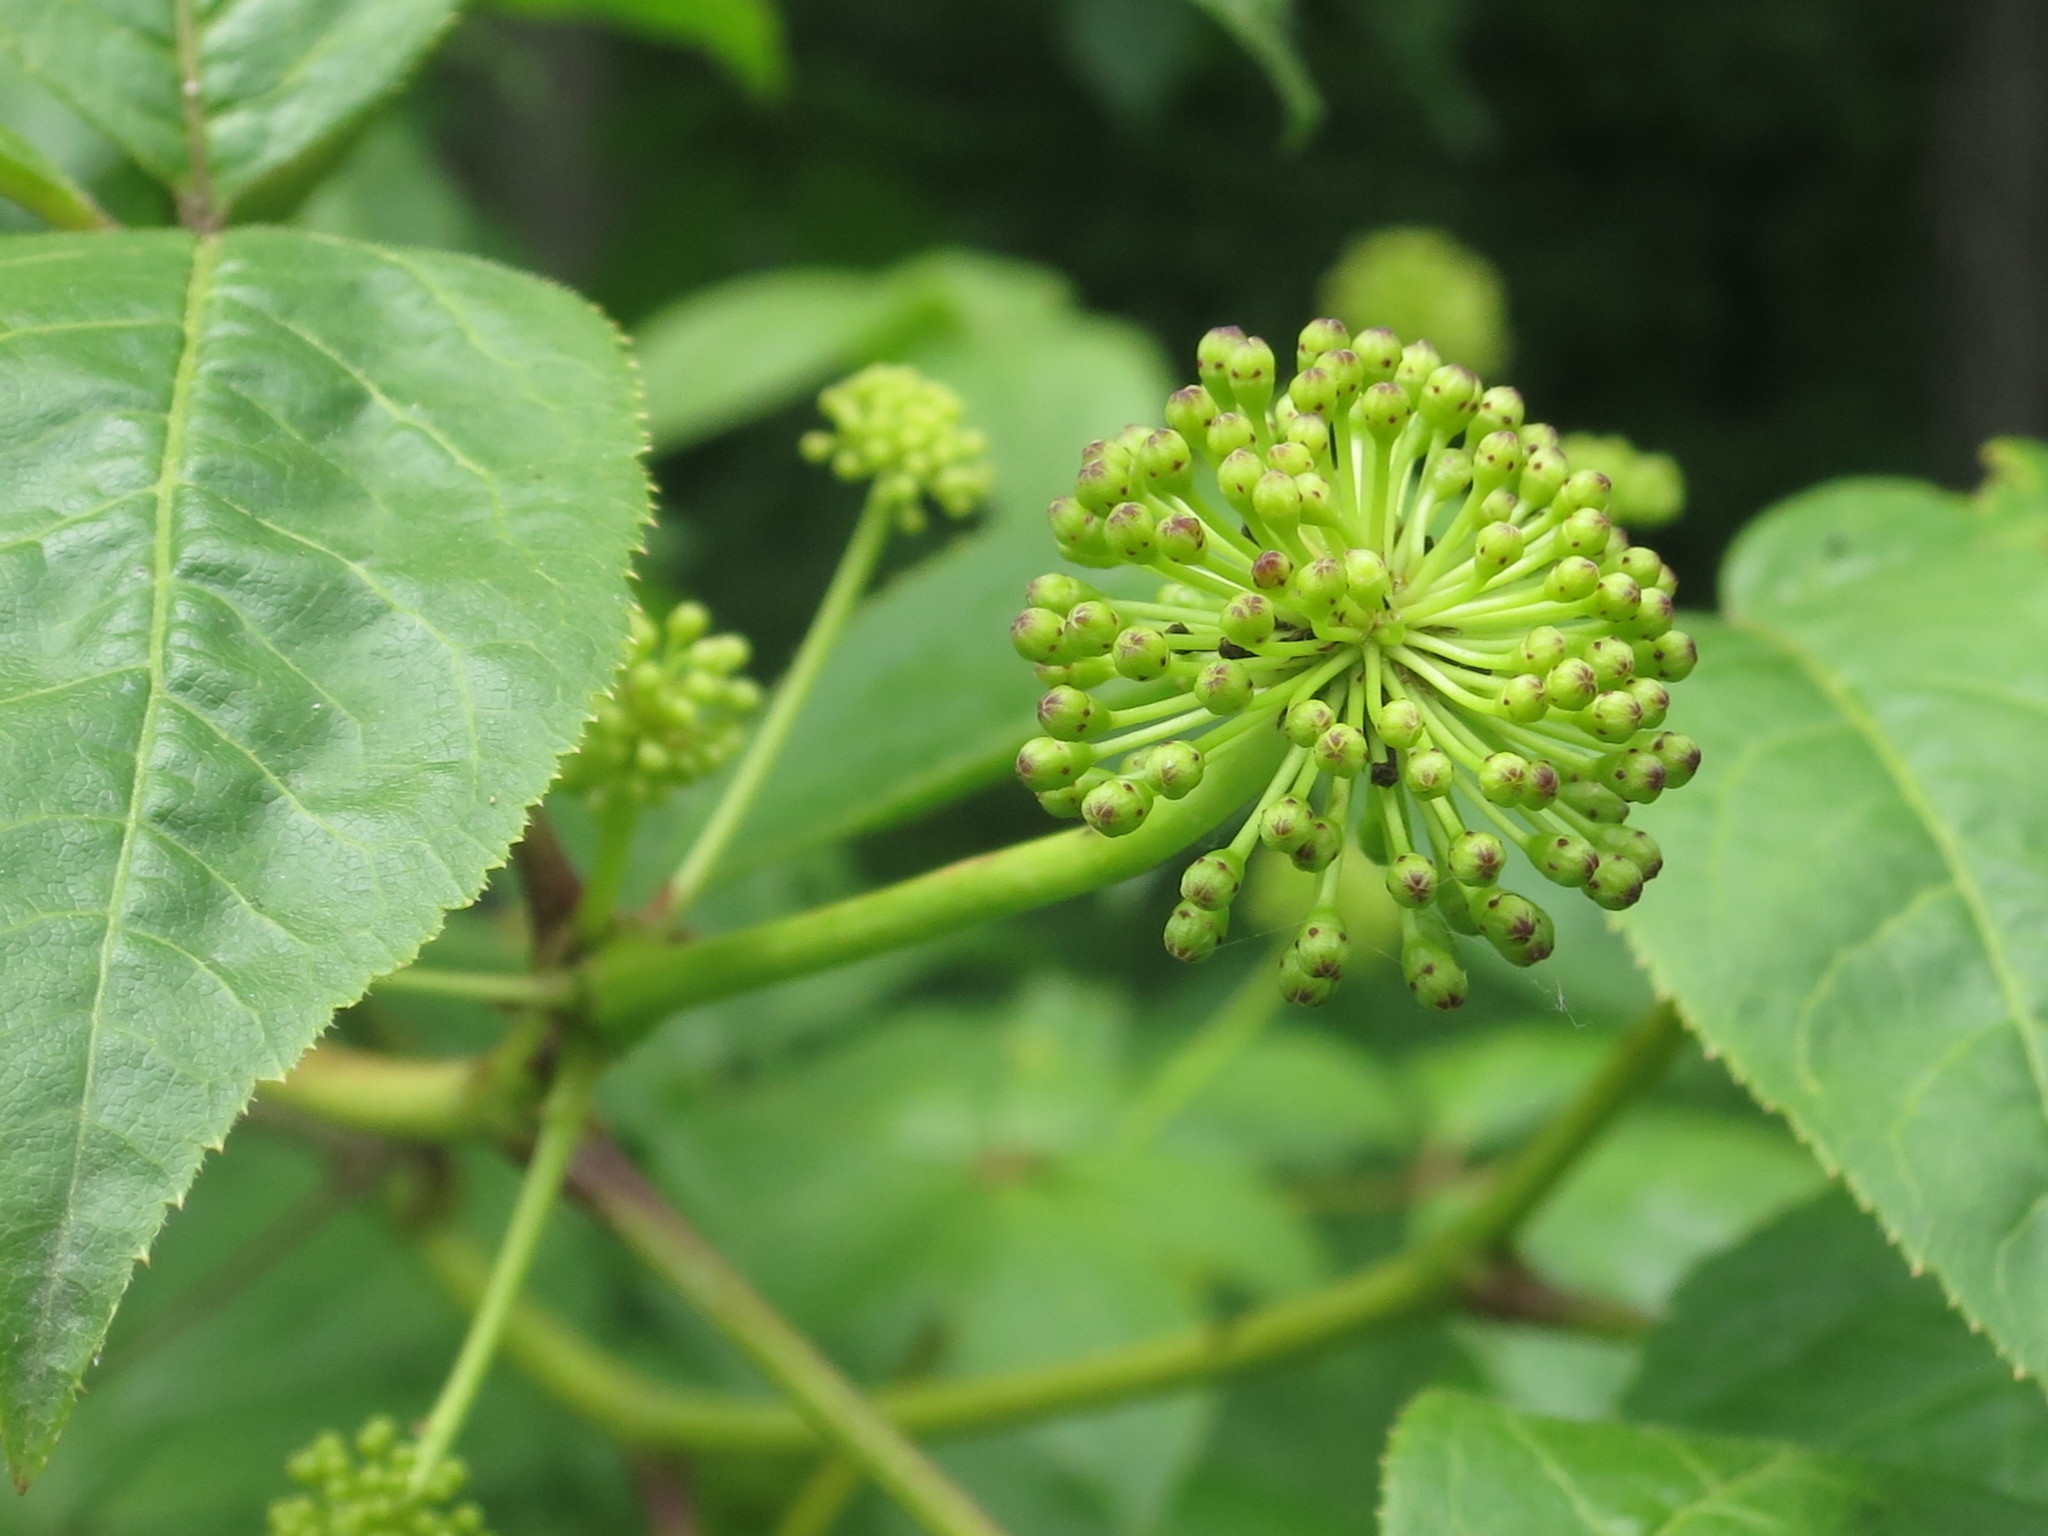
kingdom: Plantae
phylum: Tracheophyta
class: Magnoliopsida
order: Apiales
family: Araliaceae
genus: Eleutherococcus
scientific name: Eleutherococcus senticosus
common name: Siberian-ginseng
